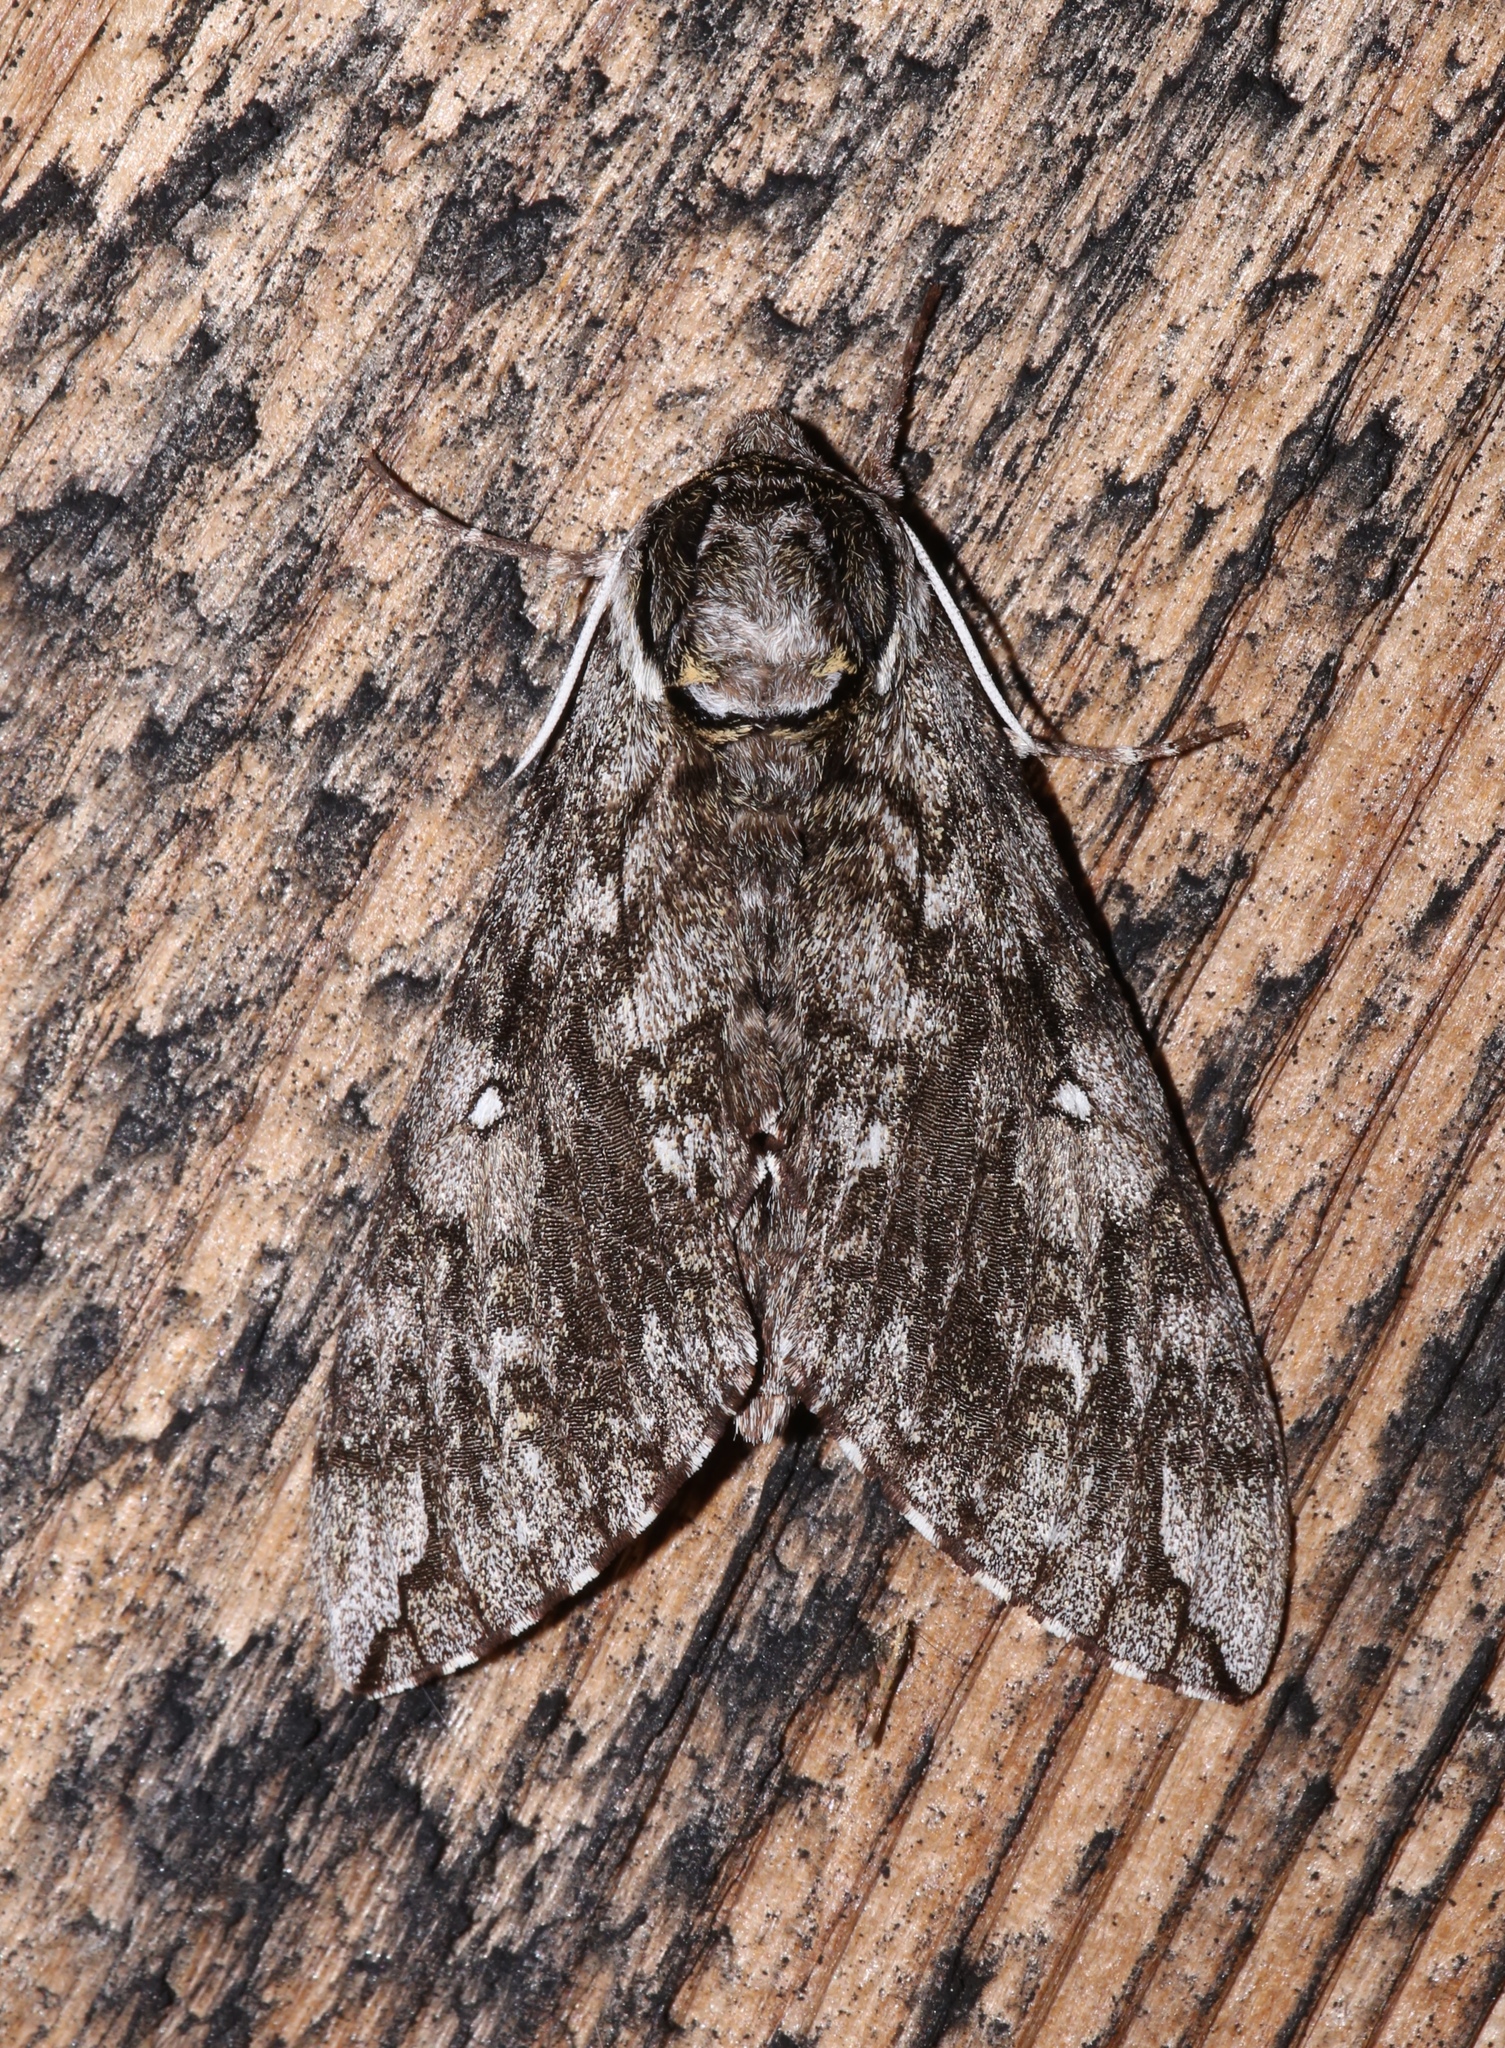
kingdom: Animalia
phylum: Arthropoda
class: Insecta
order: Lepidoptera
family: Sphingidae
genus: Ceratomia
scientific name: Ceratomia undulosa
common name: Waved sphinx
